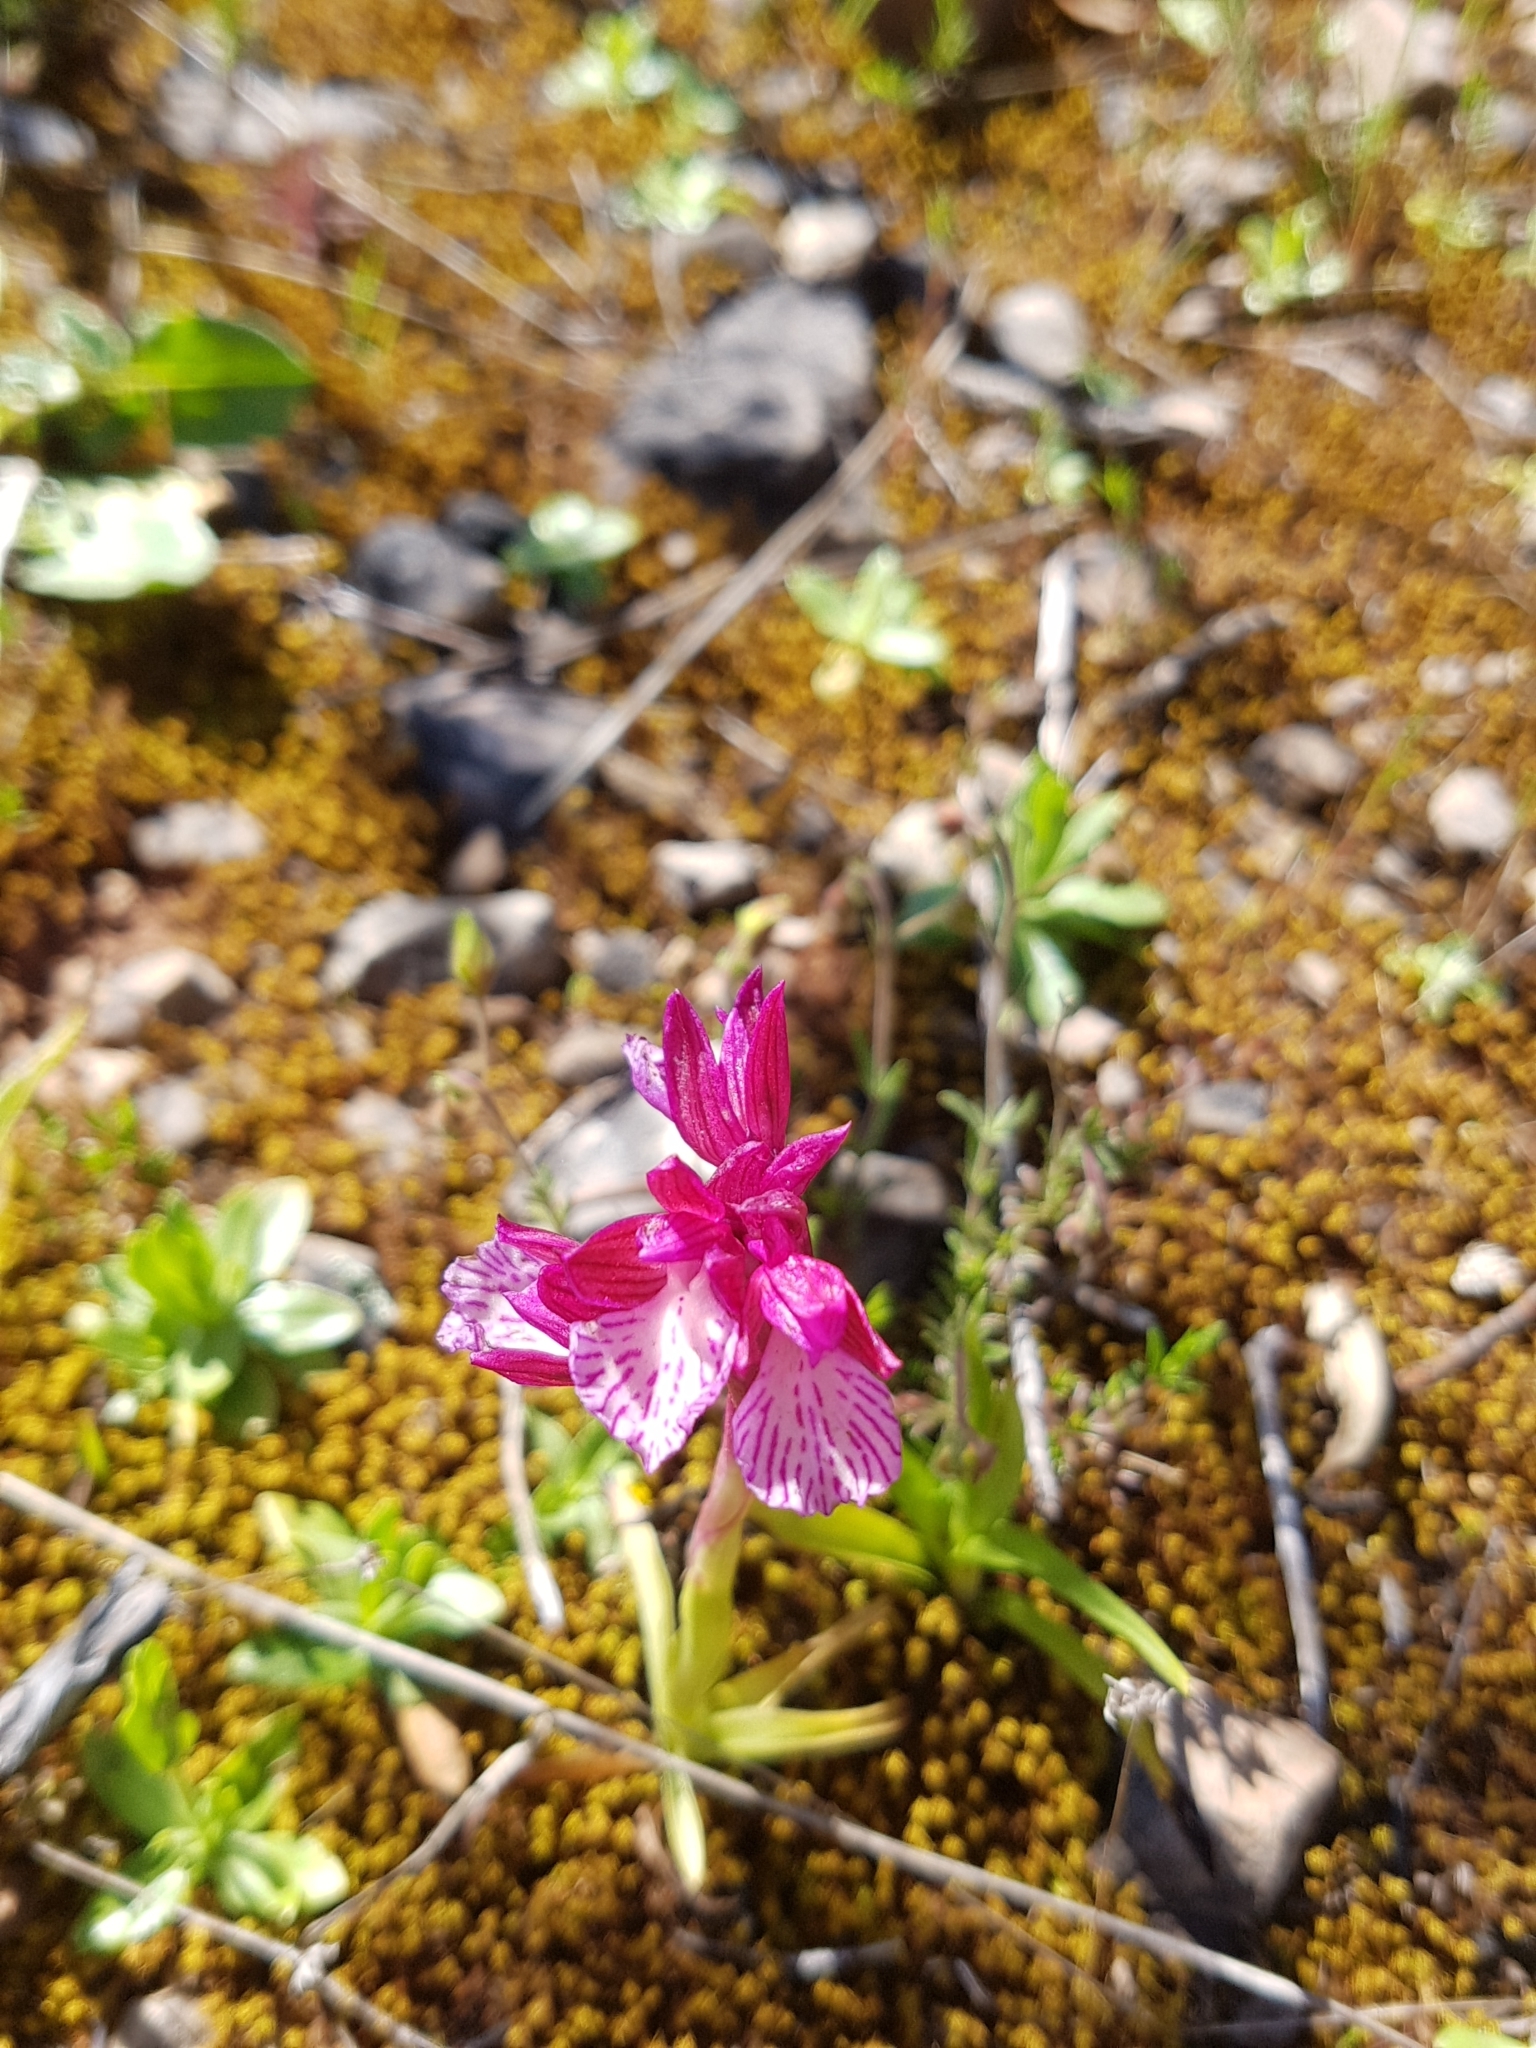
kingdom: Plantae
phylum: Tracheophyta
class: Liliopsida
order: Asparagales
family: Orchidaceae
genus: Anacamptis
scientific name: Anacamptis papilionacea
